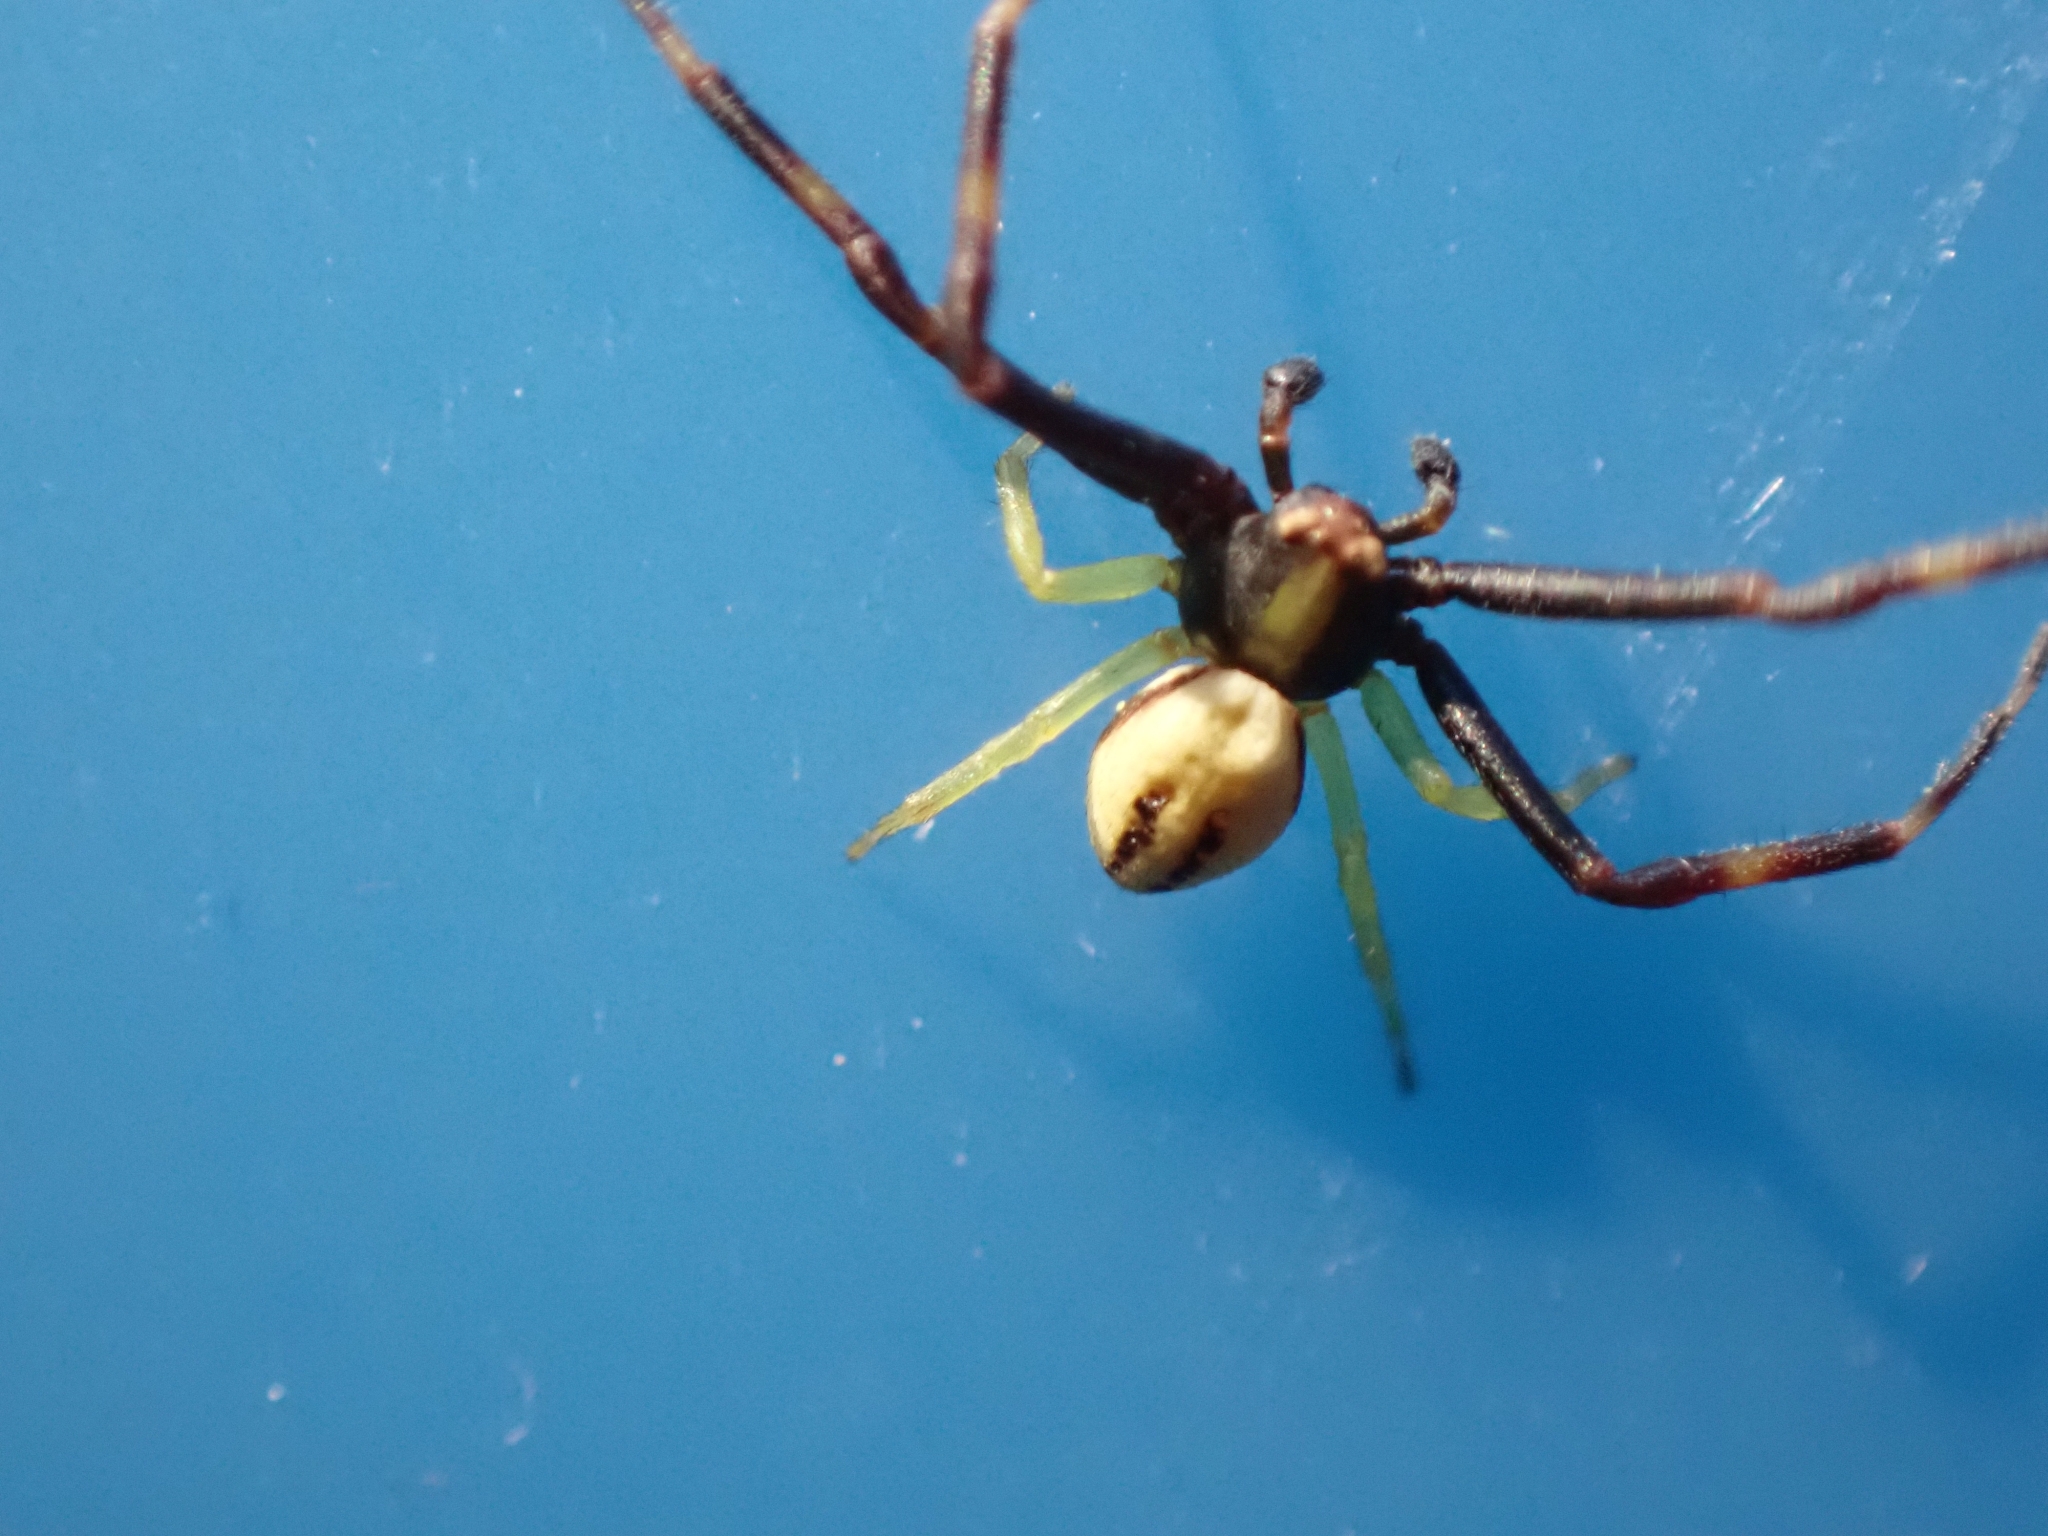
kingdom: Animalia
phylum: Arthropoda
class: Arachnida
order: Araneae
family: Thomisidae
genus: Misumena
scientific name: Misumena vatia
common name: Goldenrod crab spider
